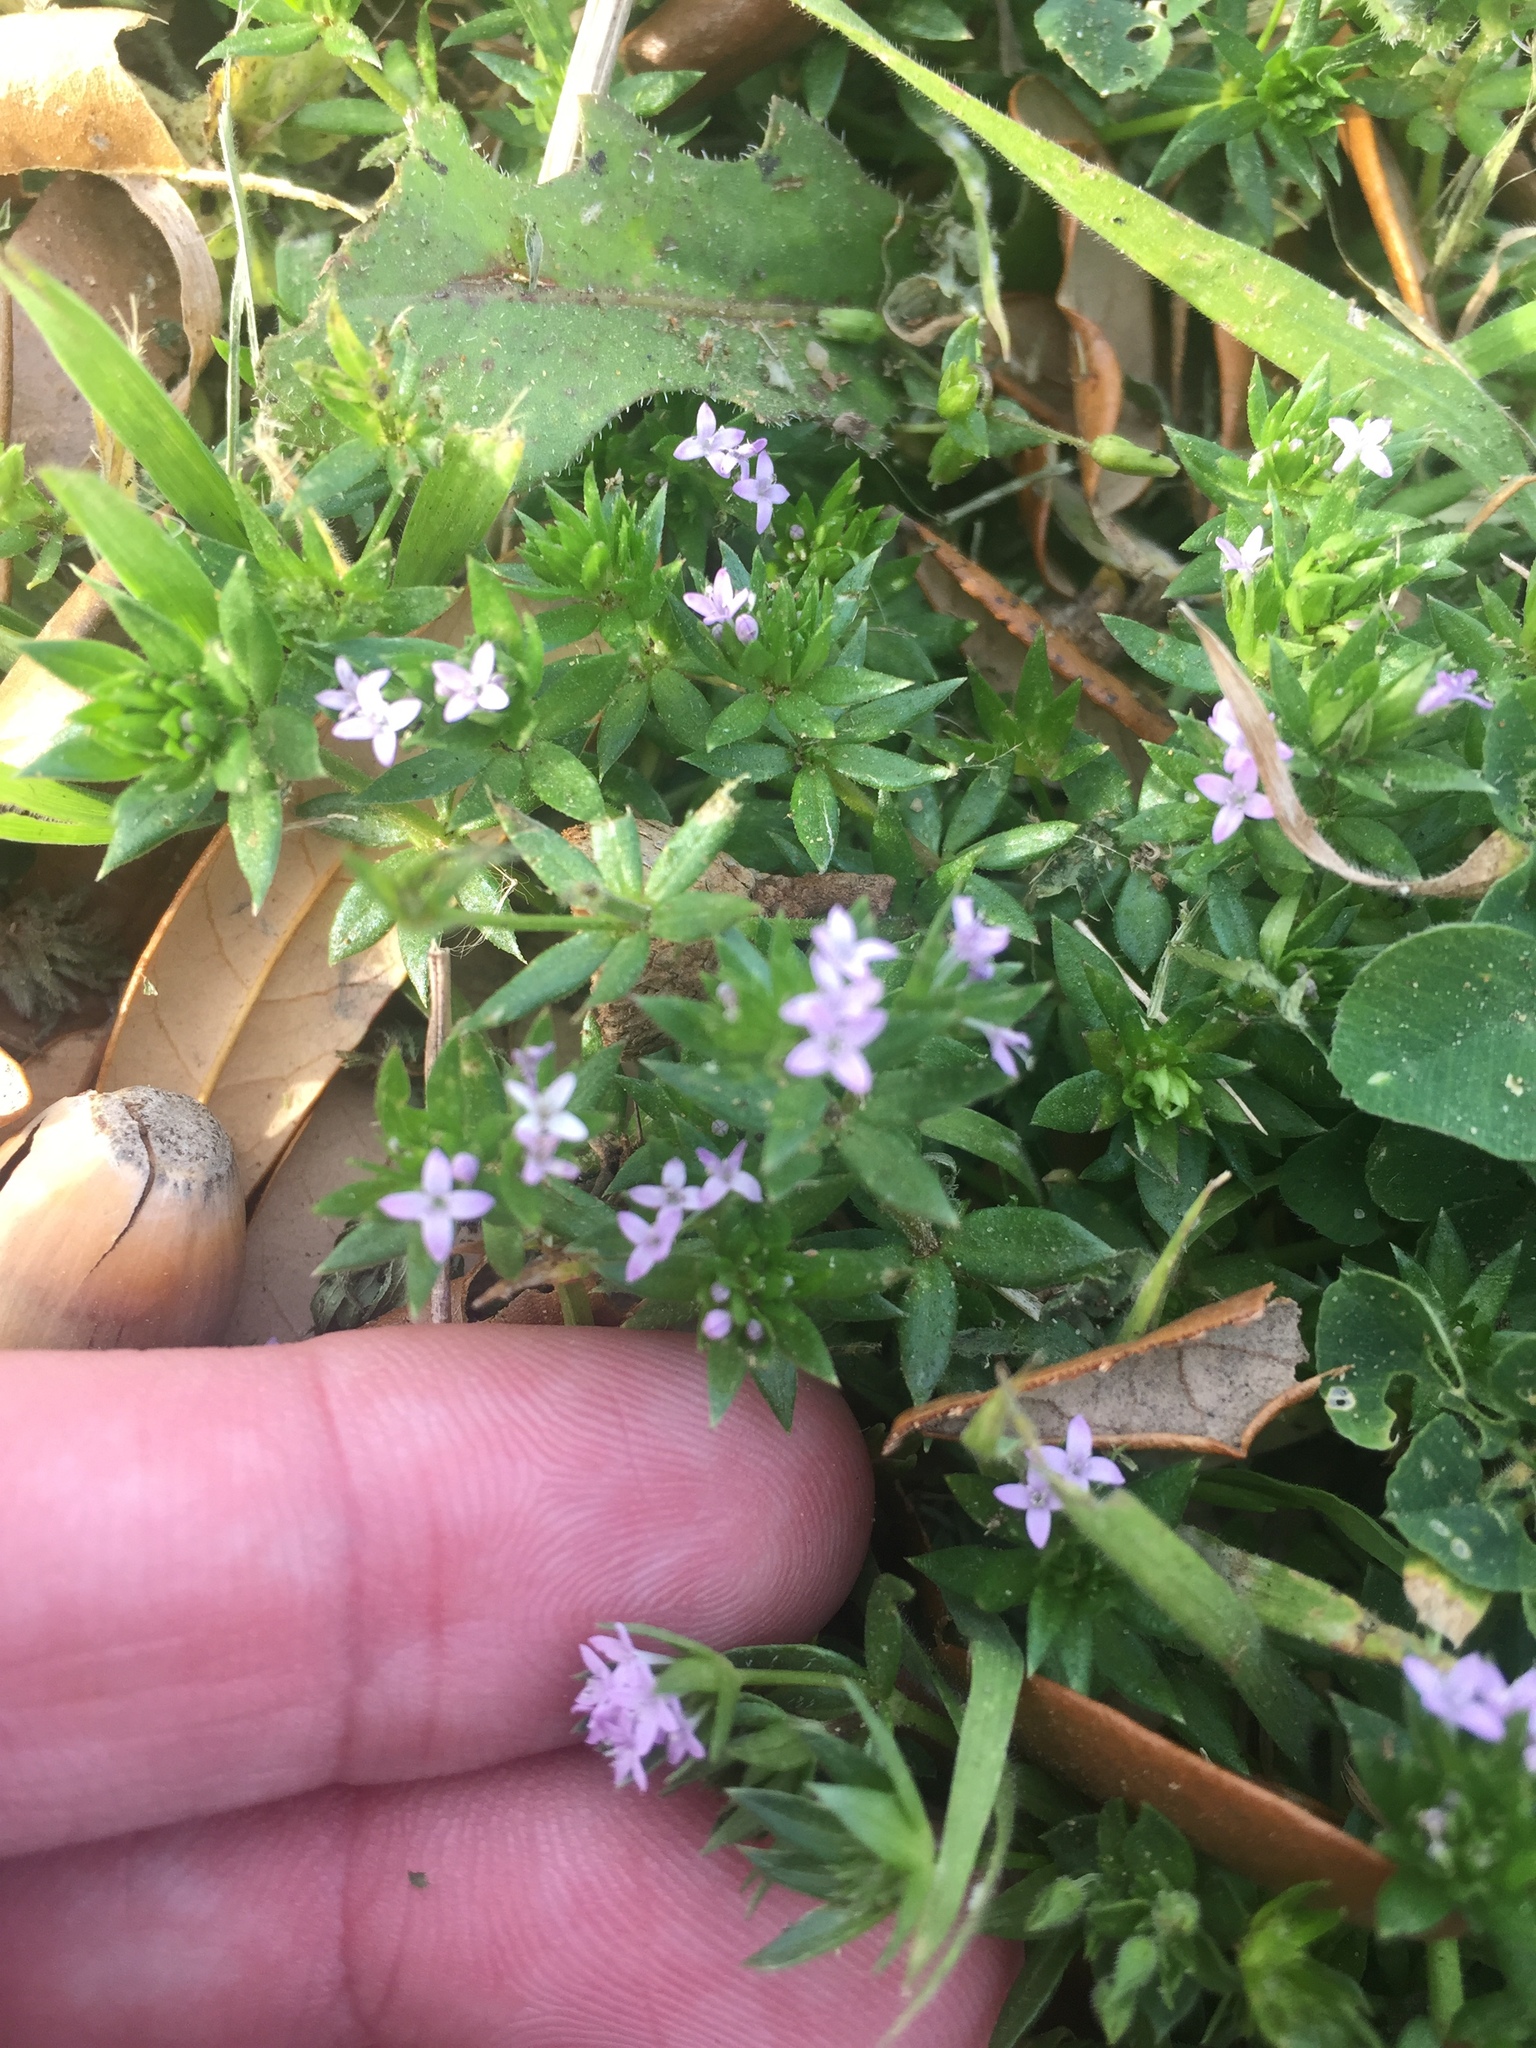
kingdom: Plantae
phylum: Tracheophyta
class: Magnoliopsida
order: Gentianales
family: Rubiaceae
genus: Sherardia
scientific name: Sherardia arvensis
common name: Field madder
